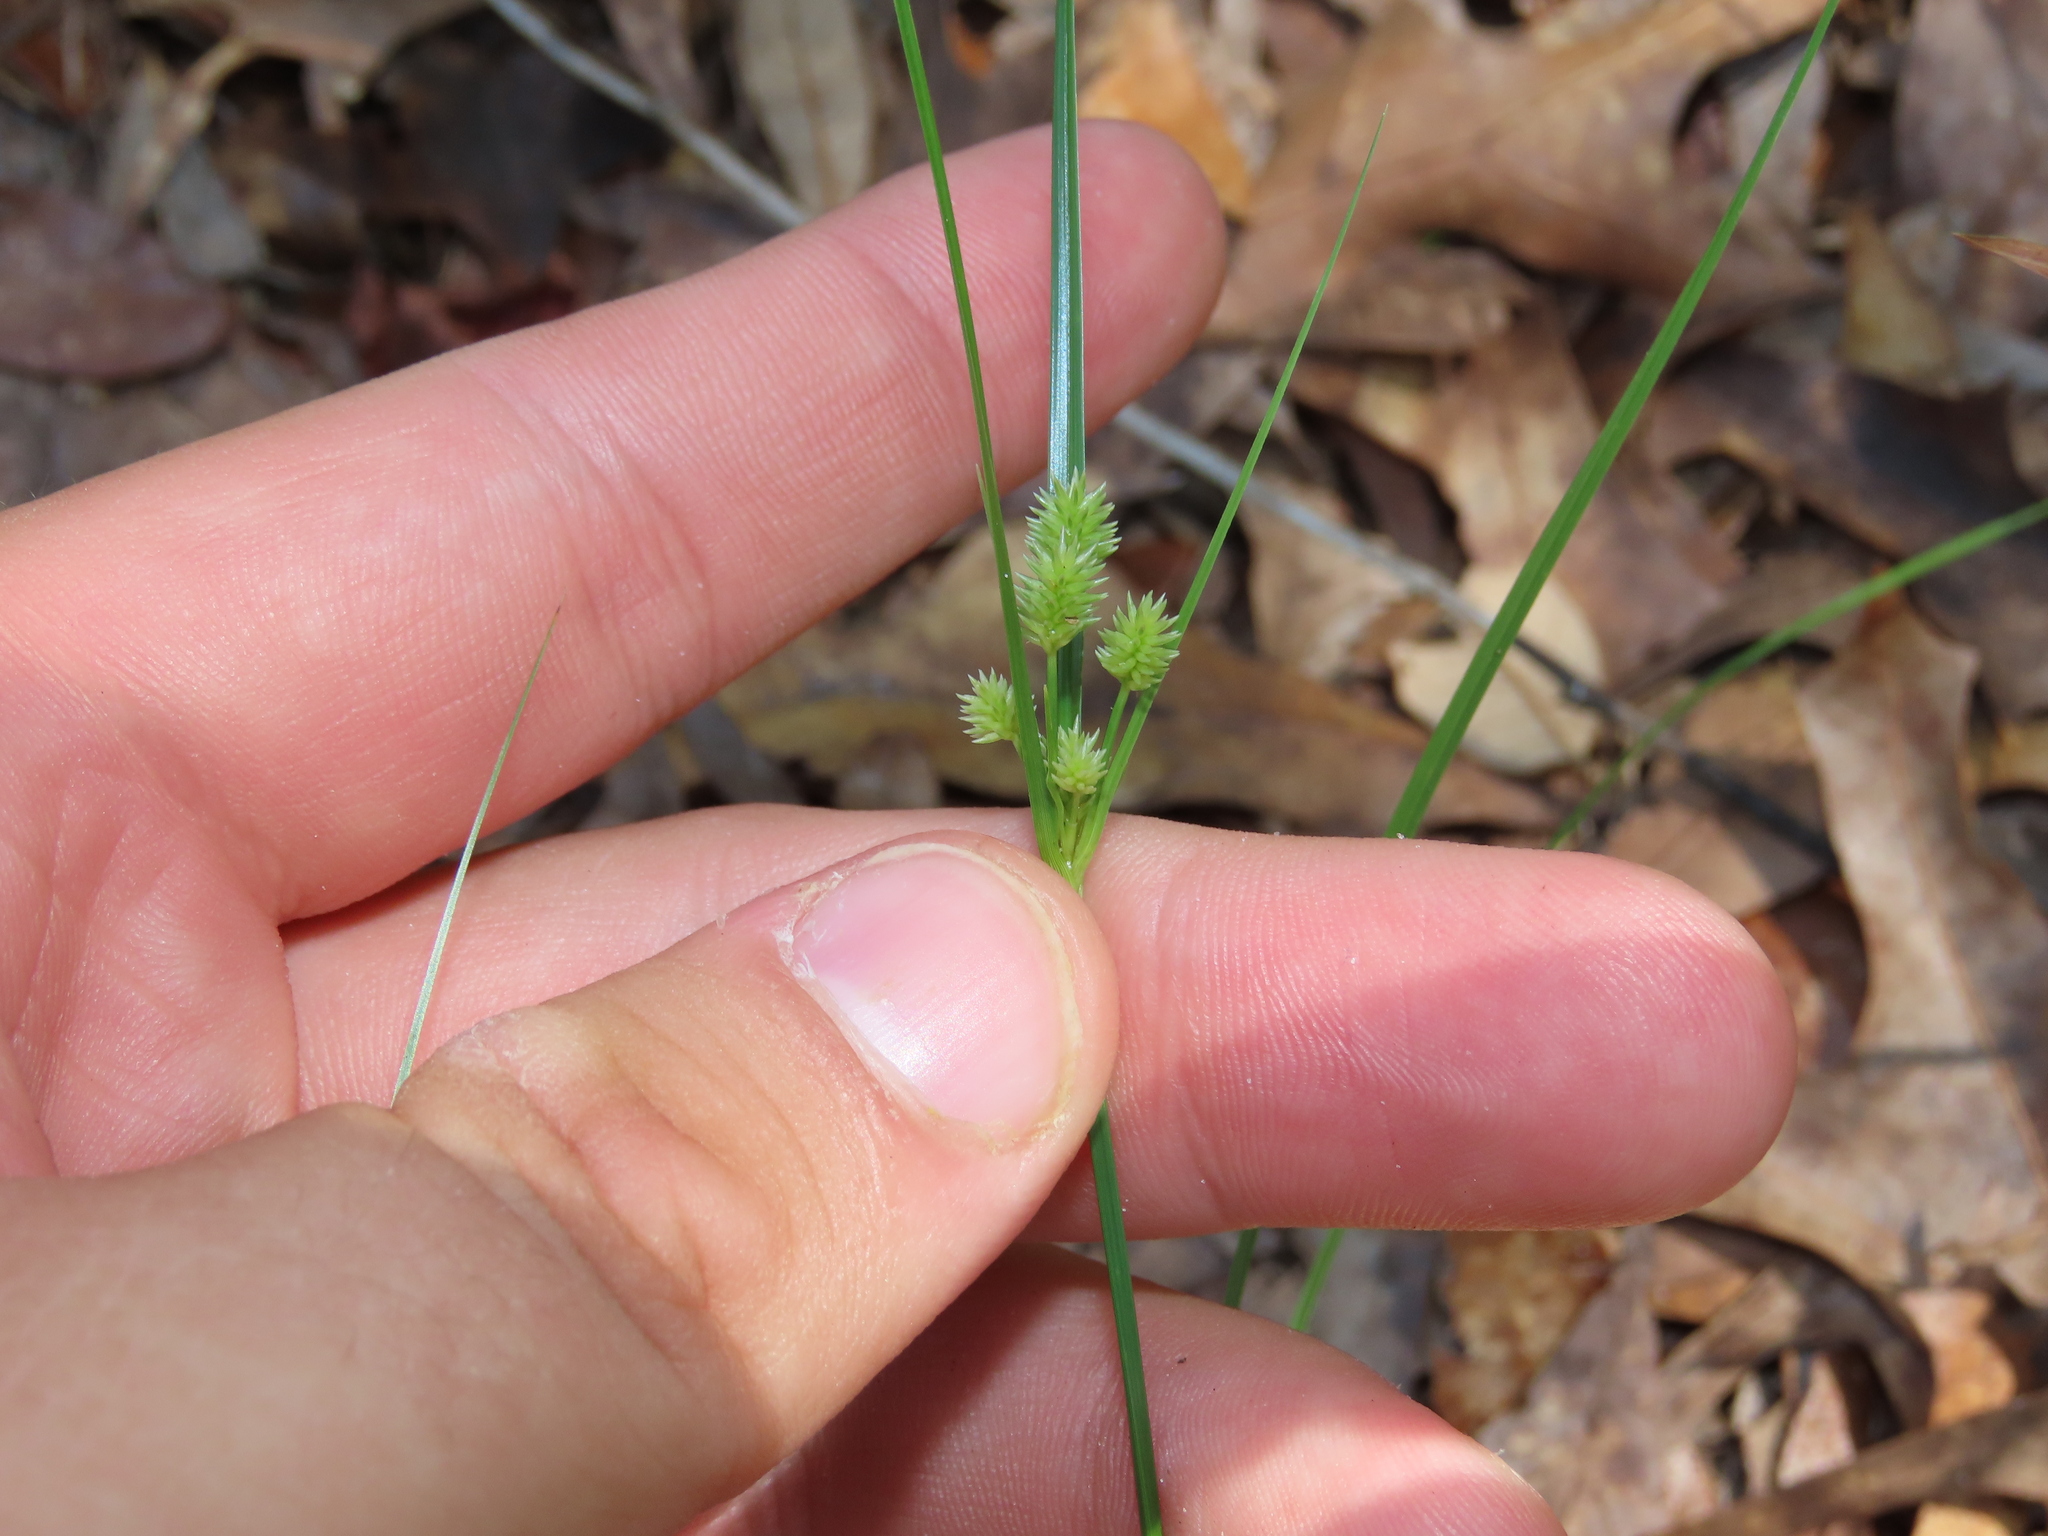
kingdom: Plantae
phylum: Tracheophyta
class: Liliopsida
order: Poales
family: Cyperaceae
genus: Cyperus
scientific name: Cyperus retrorsus
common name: Pinebarren flat sedge
